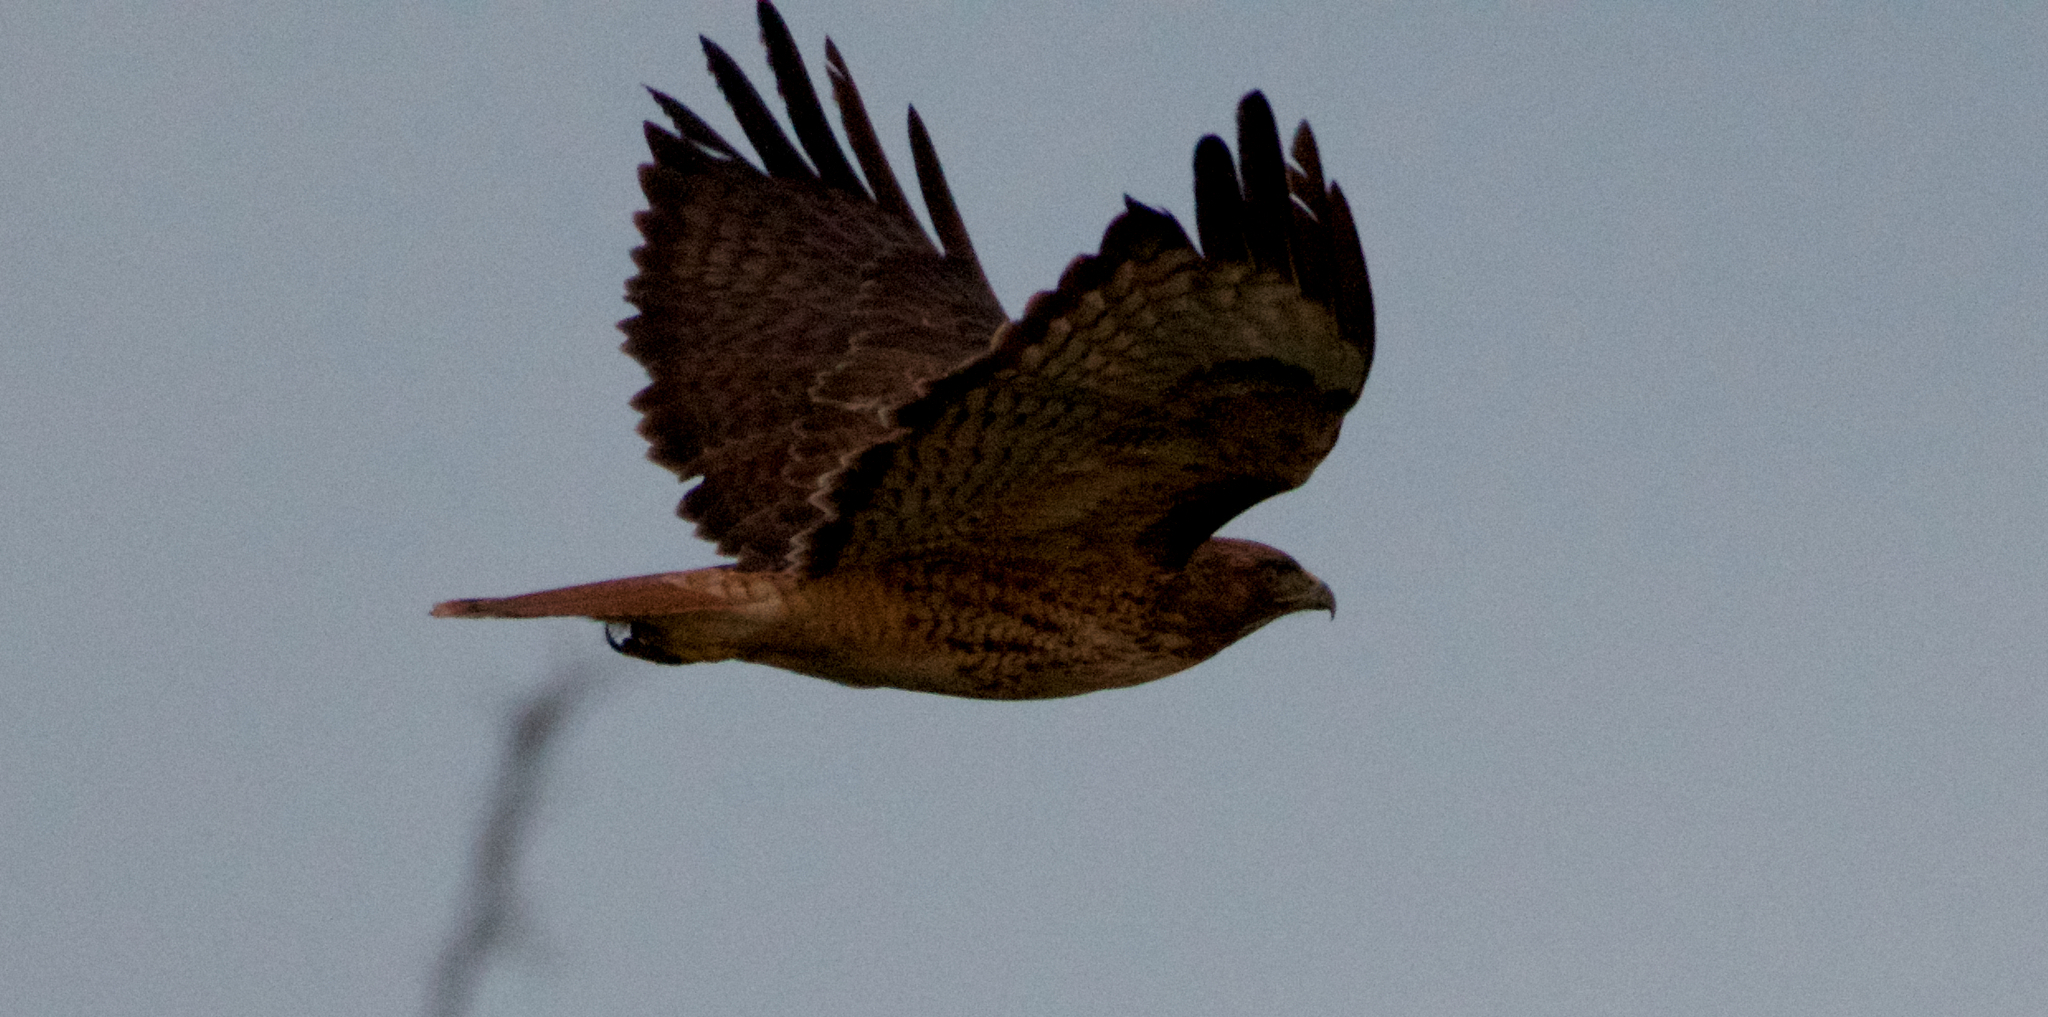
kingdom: Animalia
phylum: Chordata
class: Aves
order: Accipitriformes
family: Accipitridae
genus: Buteo
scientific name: Buteo jamaicensis
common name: Red-tailed hawk
